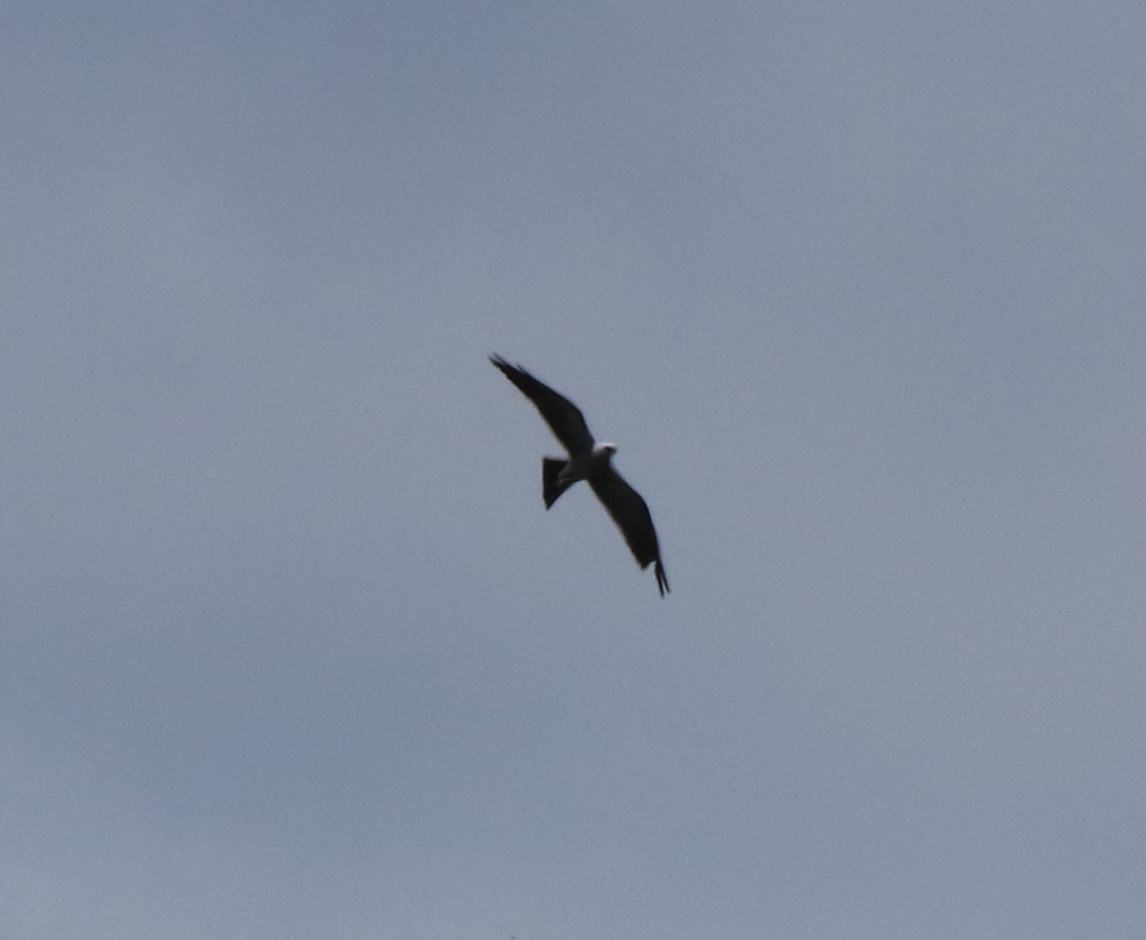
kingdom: Animalia
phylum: Chordata
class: Aves
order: Accipitriformes
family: Accipitridae
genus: Ictinia
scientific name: Ictinia mississippiensis
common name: Mississippi kite
